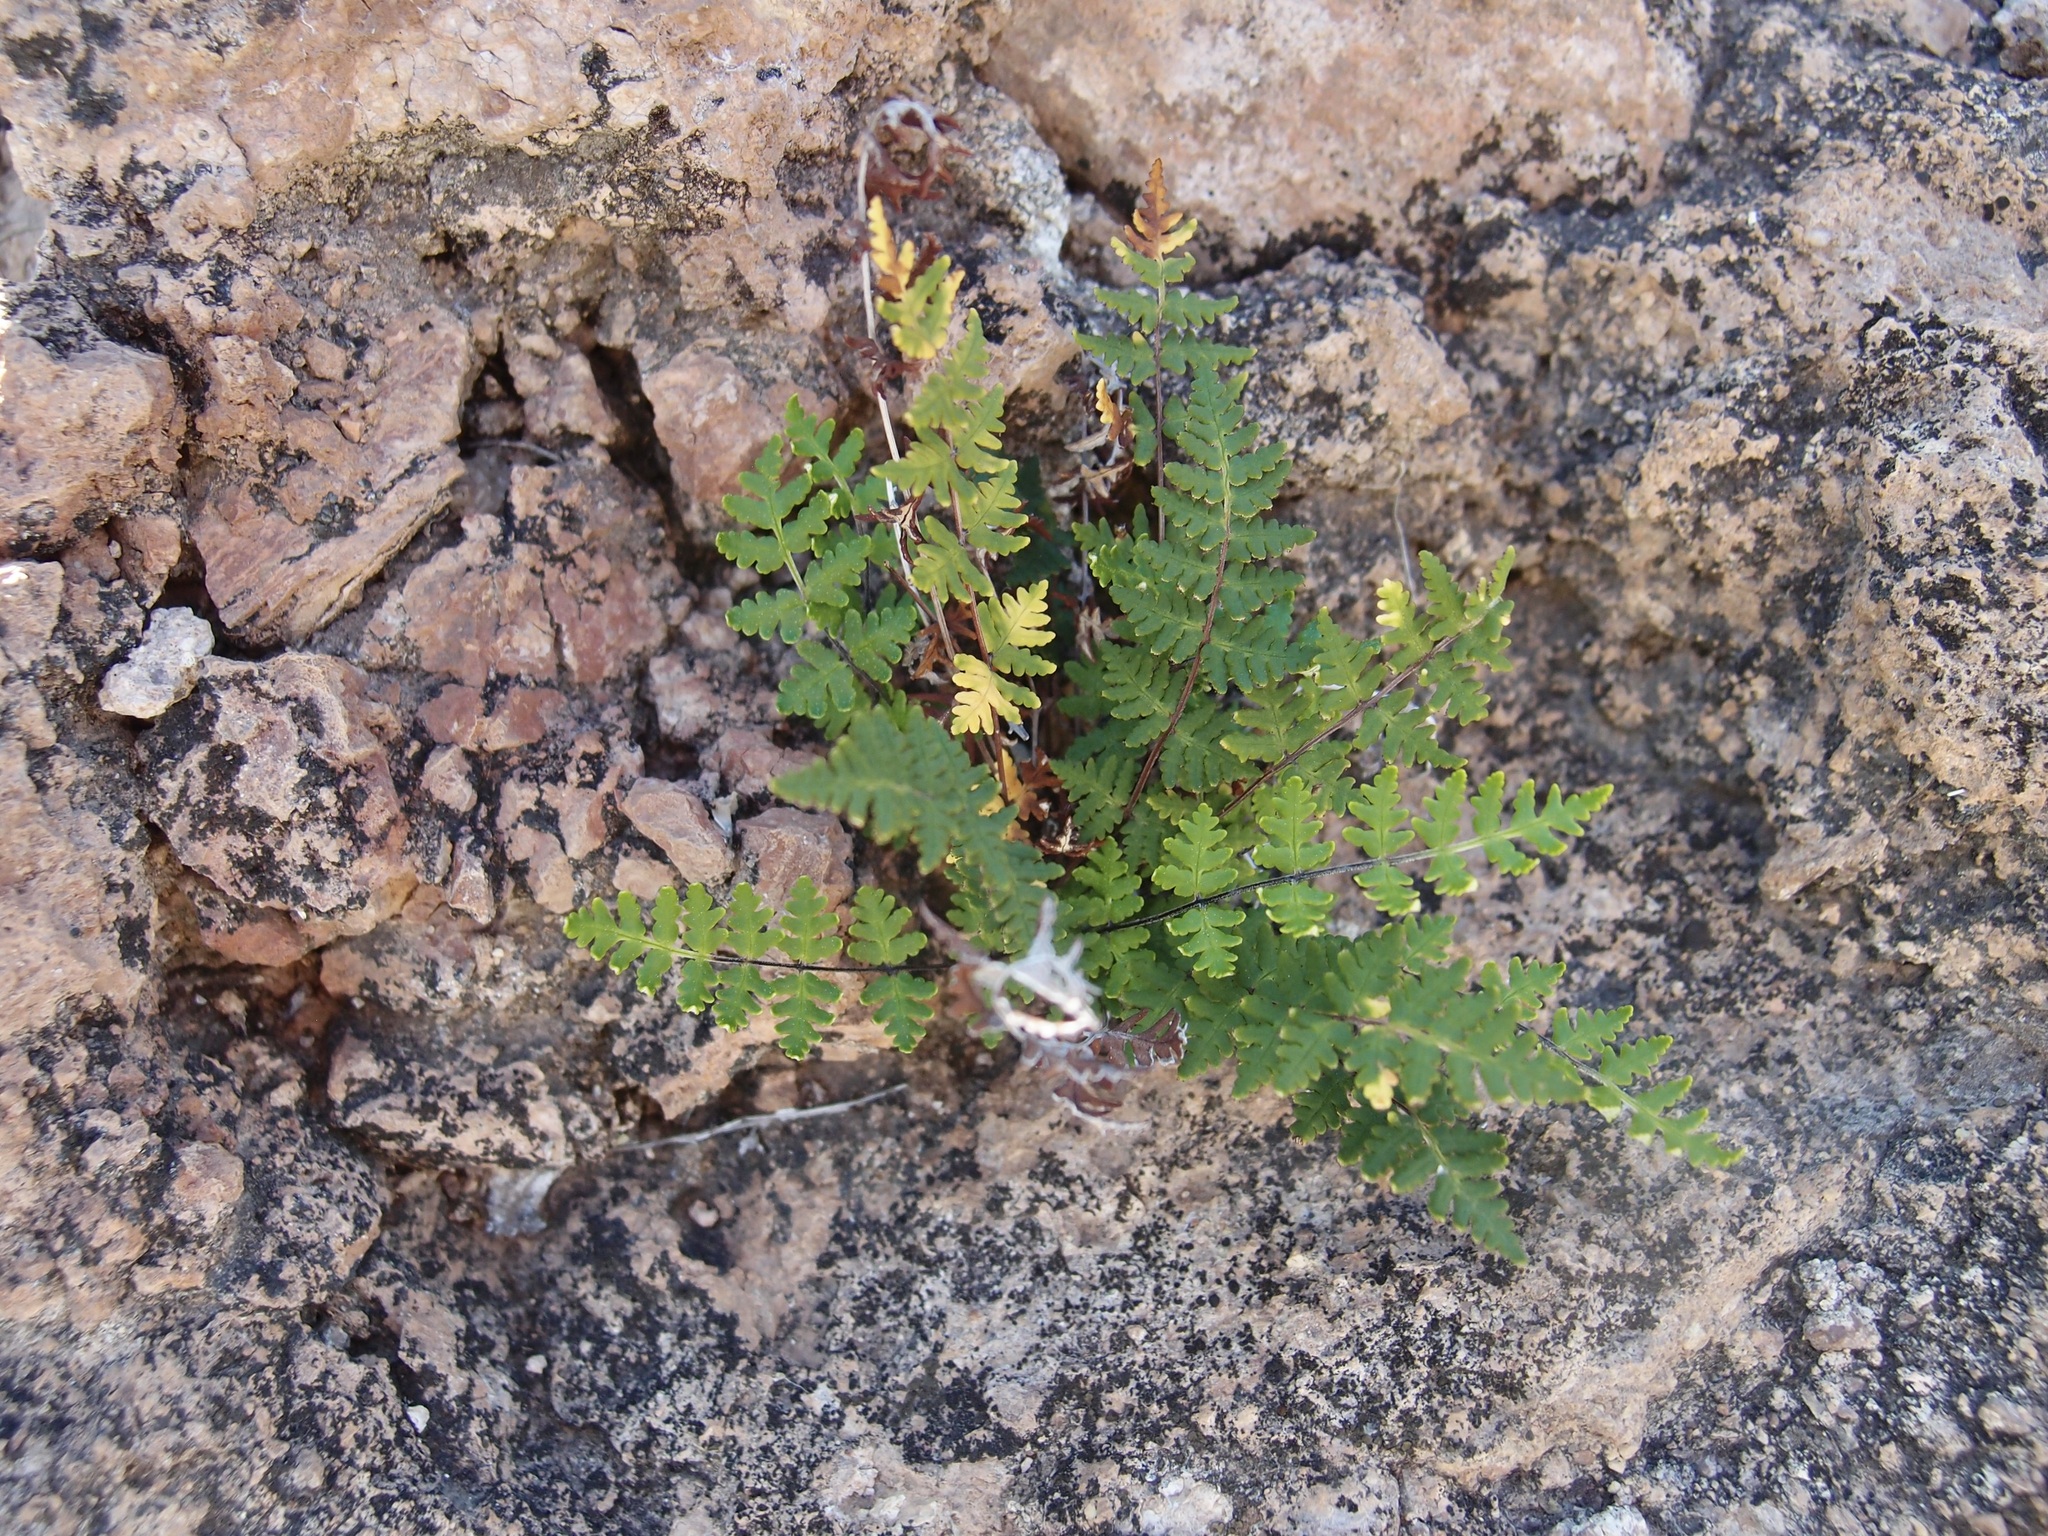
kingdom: Plantae
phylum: Tracheophyta
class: Polypodiopsida
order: Polypodiales
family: Pteridaceae
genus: Notholaena
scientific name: Notholaena lemmonii
